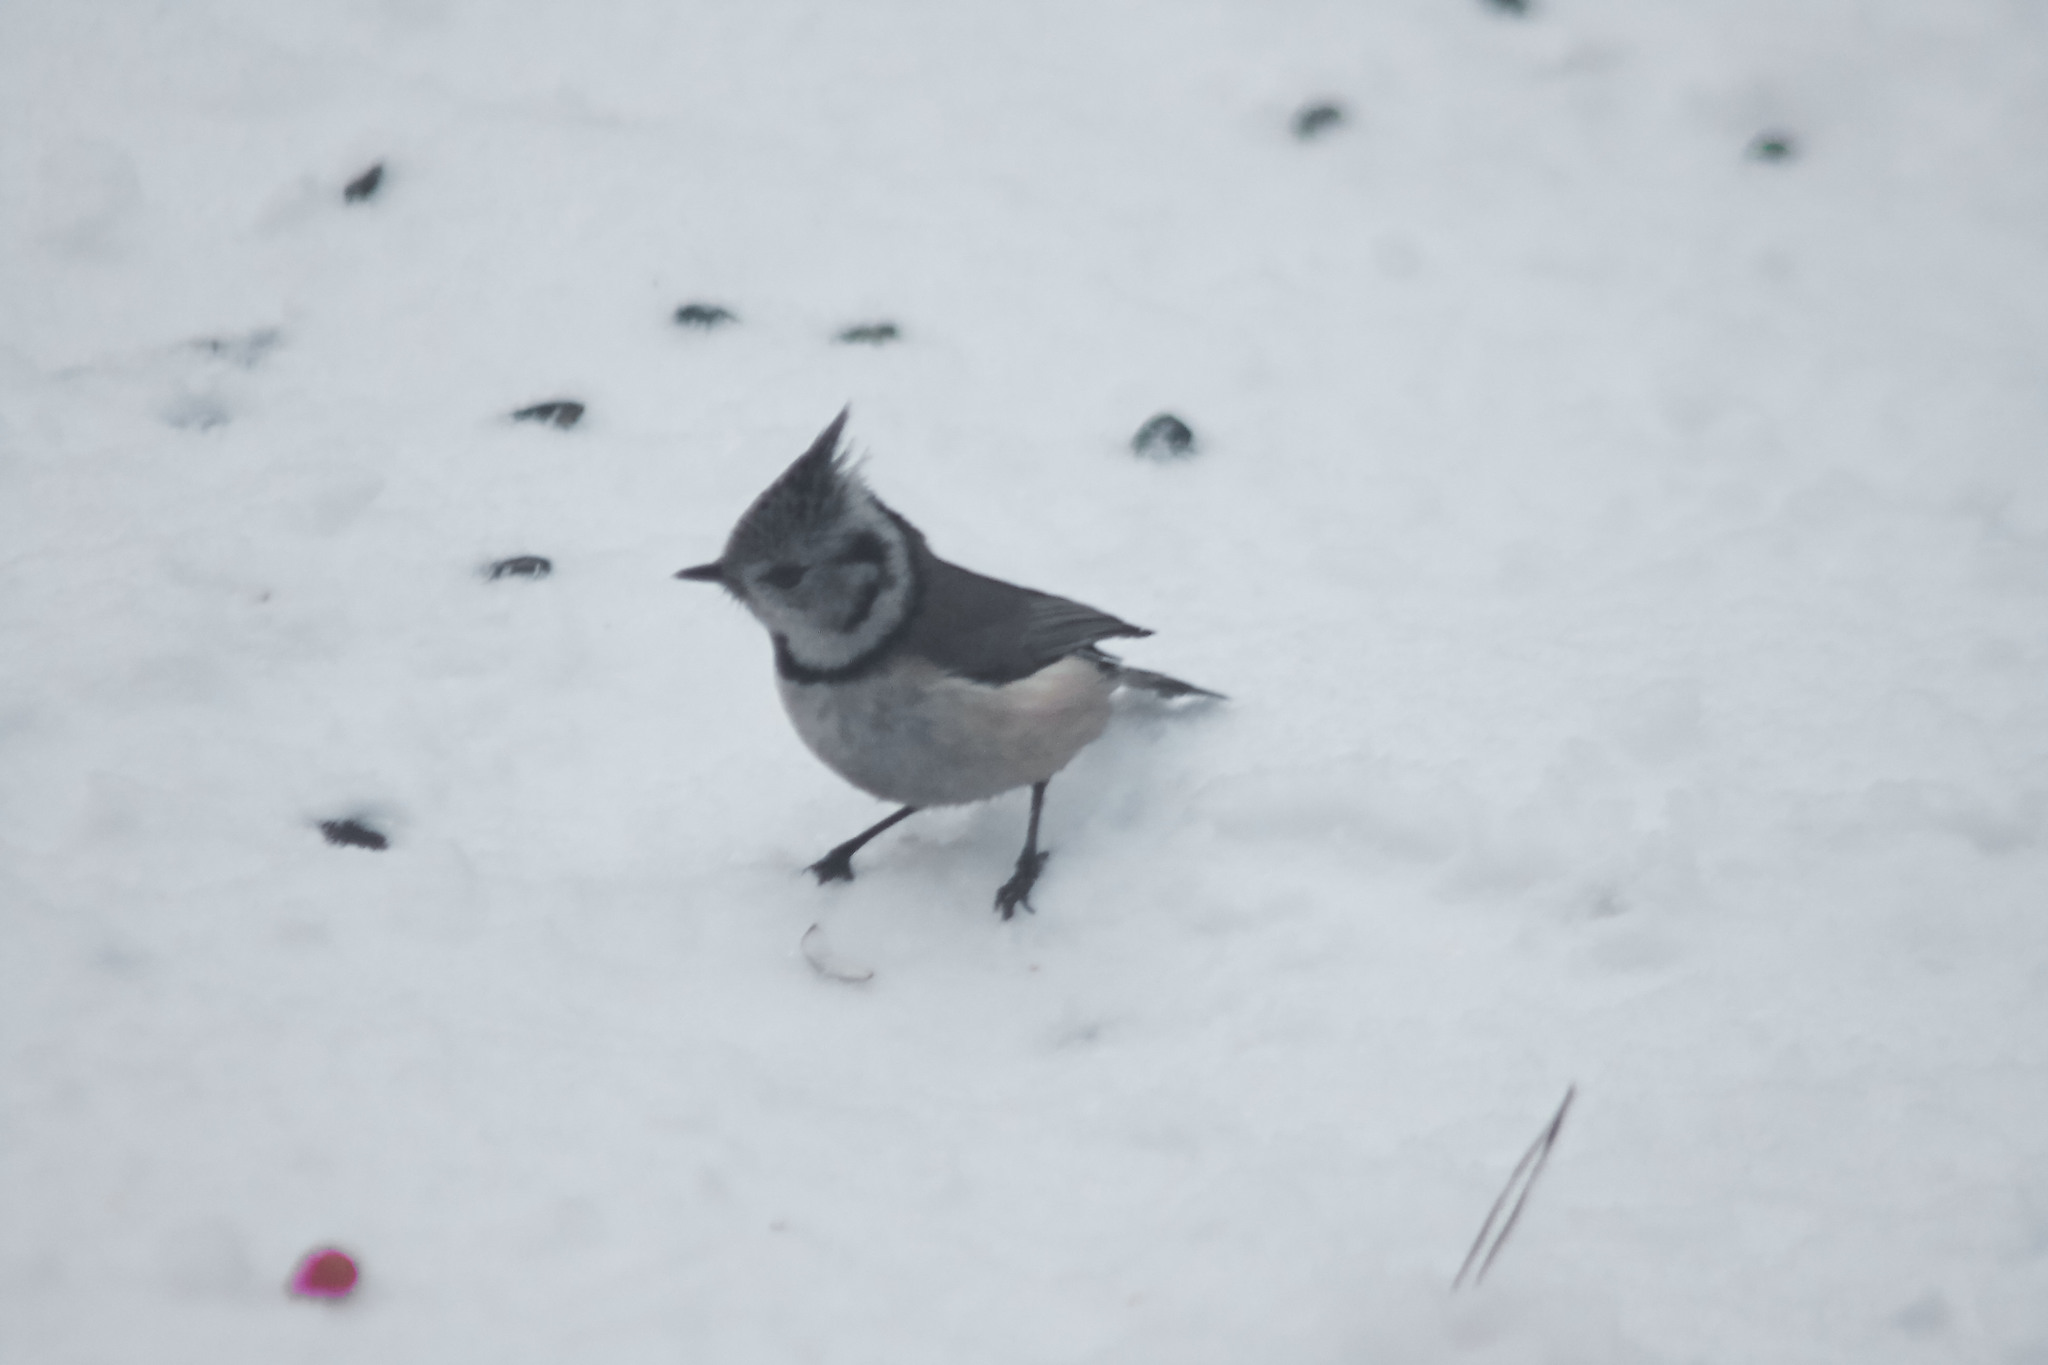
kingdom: Animalia
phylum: Chordata
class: Aves
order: Passeriformes
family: Paridae
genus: Lophophanes
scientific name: Lophophanes cristatus
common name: European crested tit
